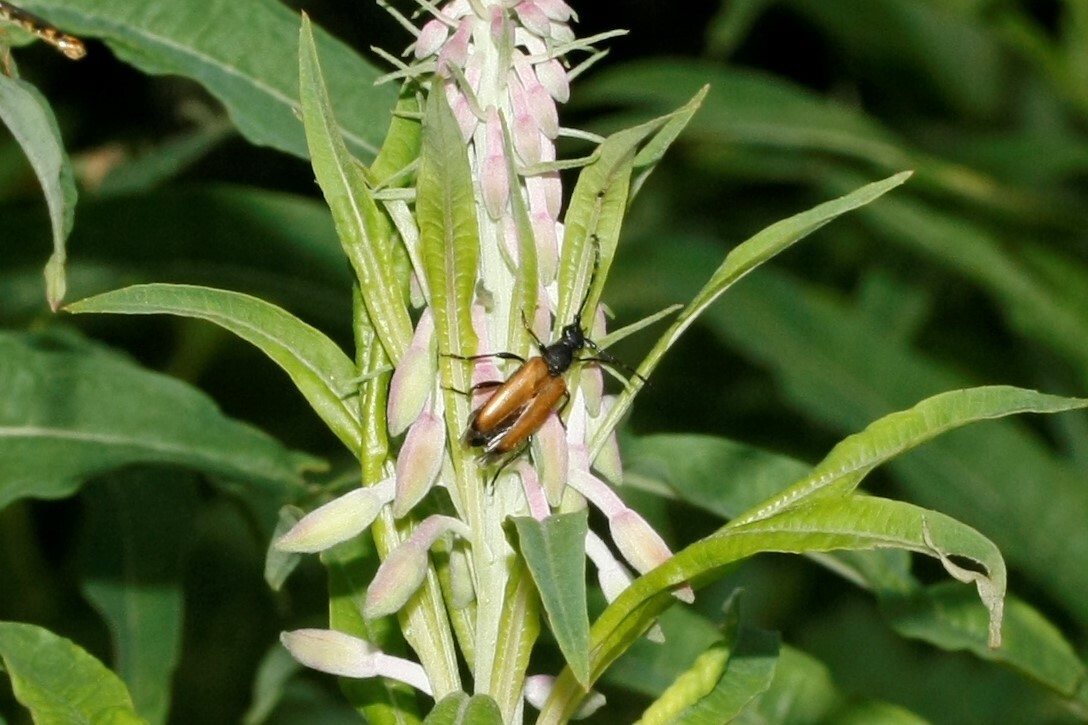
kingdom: Animalia
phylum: Arthropoda
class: Insecta
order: Coleoptera
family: Cerambycidae
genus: Paracorymbia
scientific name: Paracorymbia maculicornis
